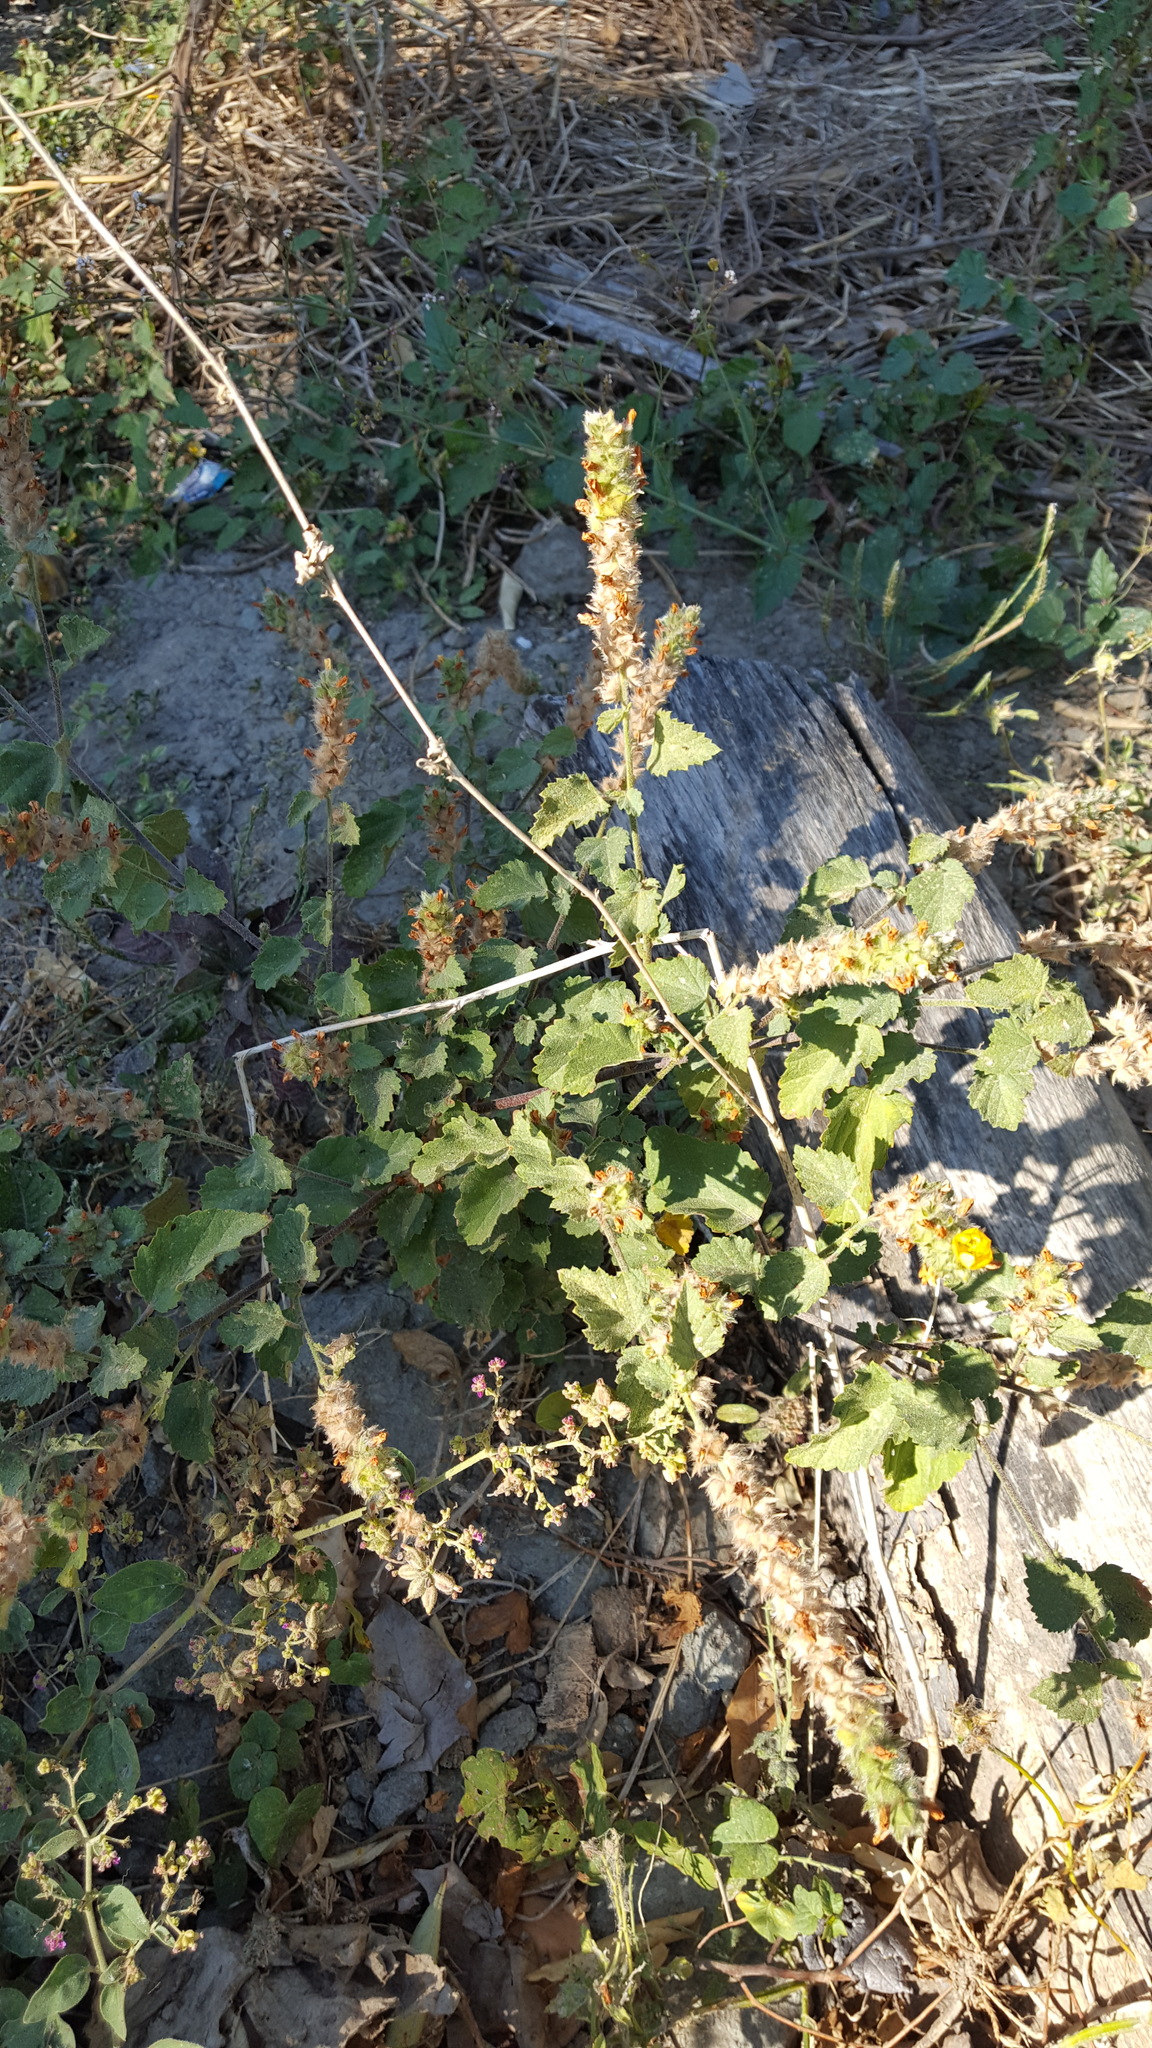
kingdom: Plantae
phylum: Tracheophyta
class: Magnoliopsida
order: Malvales
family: Malvaceae
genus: Malvastrum
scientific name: Malvastrum americanum
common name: Spiked malvastrum
